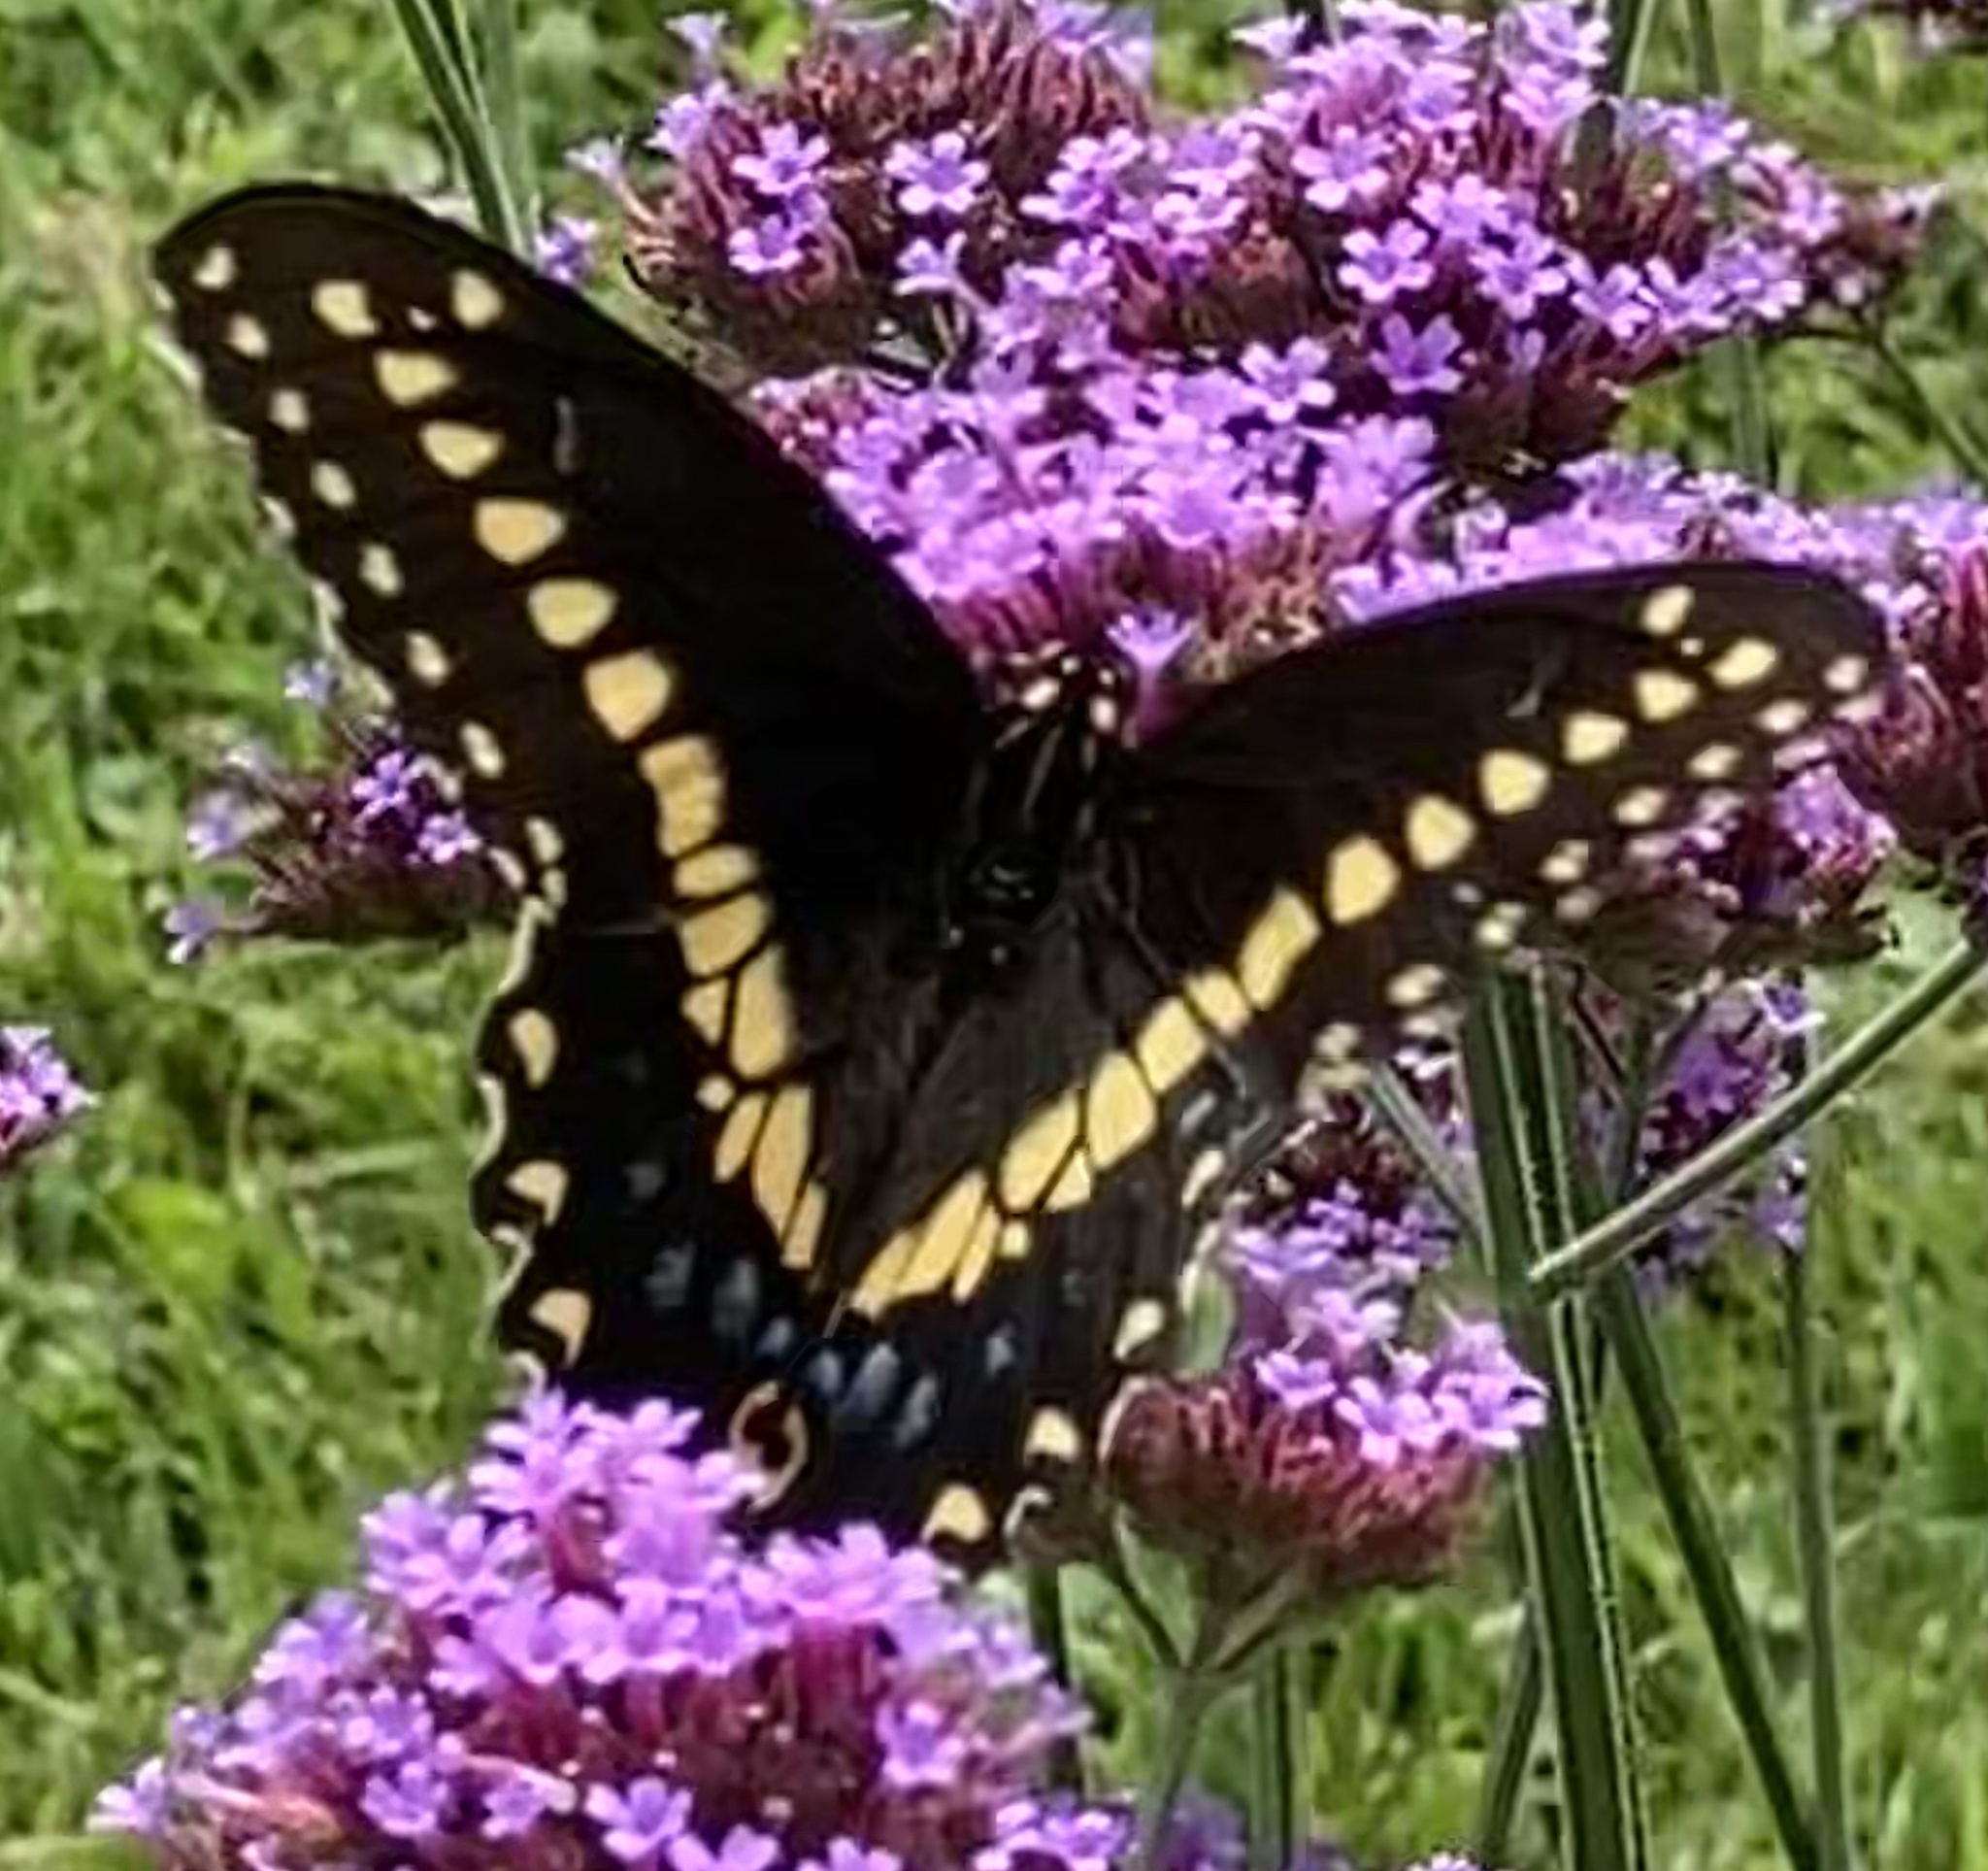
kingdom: Animalia
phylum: Arthropoda
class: Insecta
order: Lepidoptera
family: Papilionidae
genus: Papilio
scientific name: Papilio polyxenes
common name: Black swallowtail
